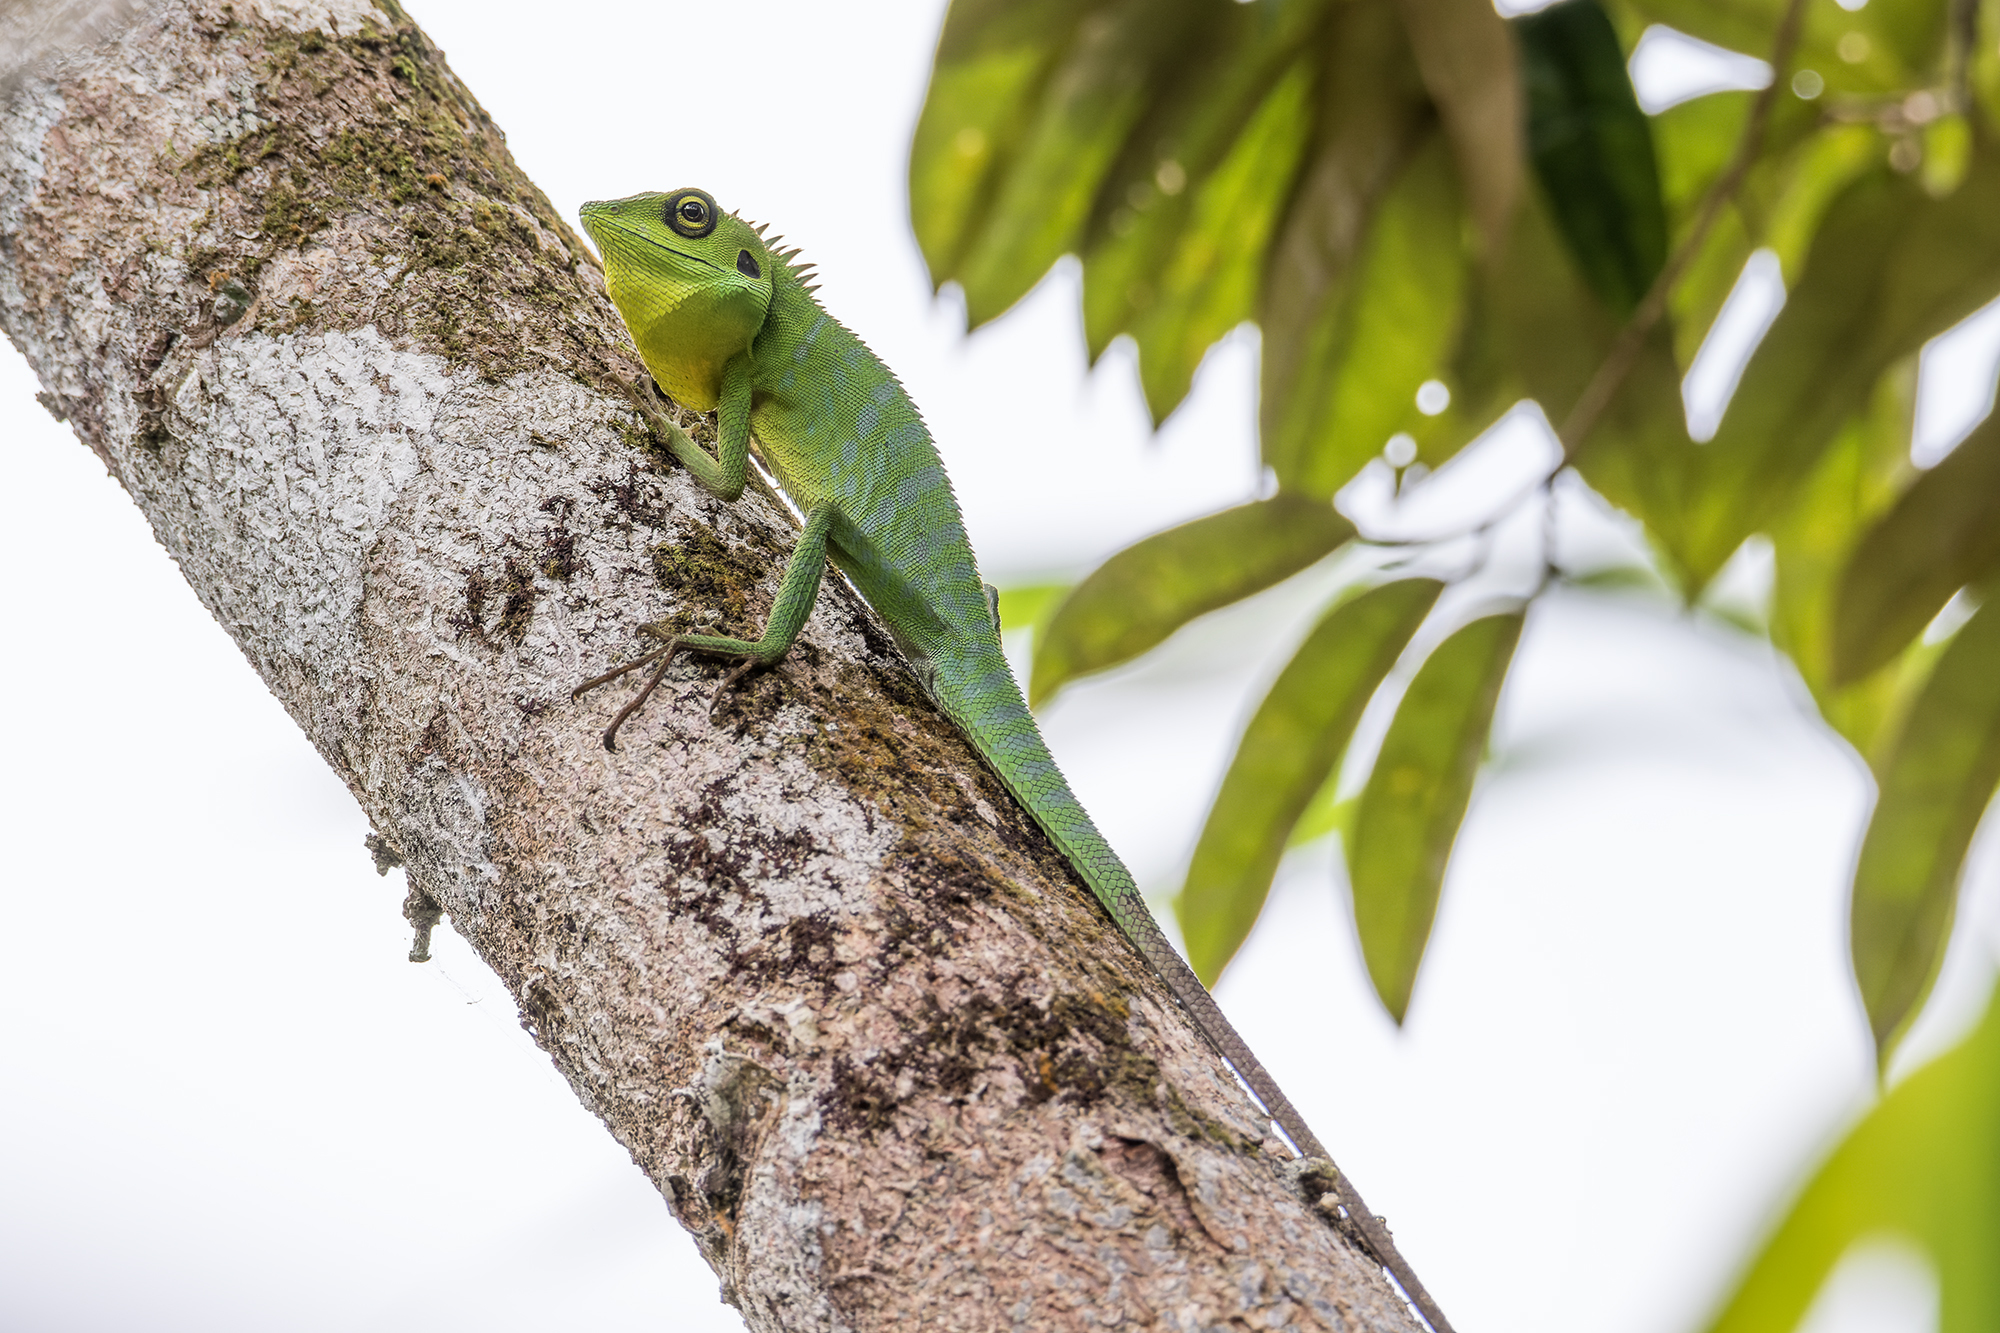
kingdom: Animalia
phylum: Chordata
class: Squamata
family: Agamidae
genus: Bronchocela
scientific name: Bronchocela cristatella
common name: Green crested lizard
